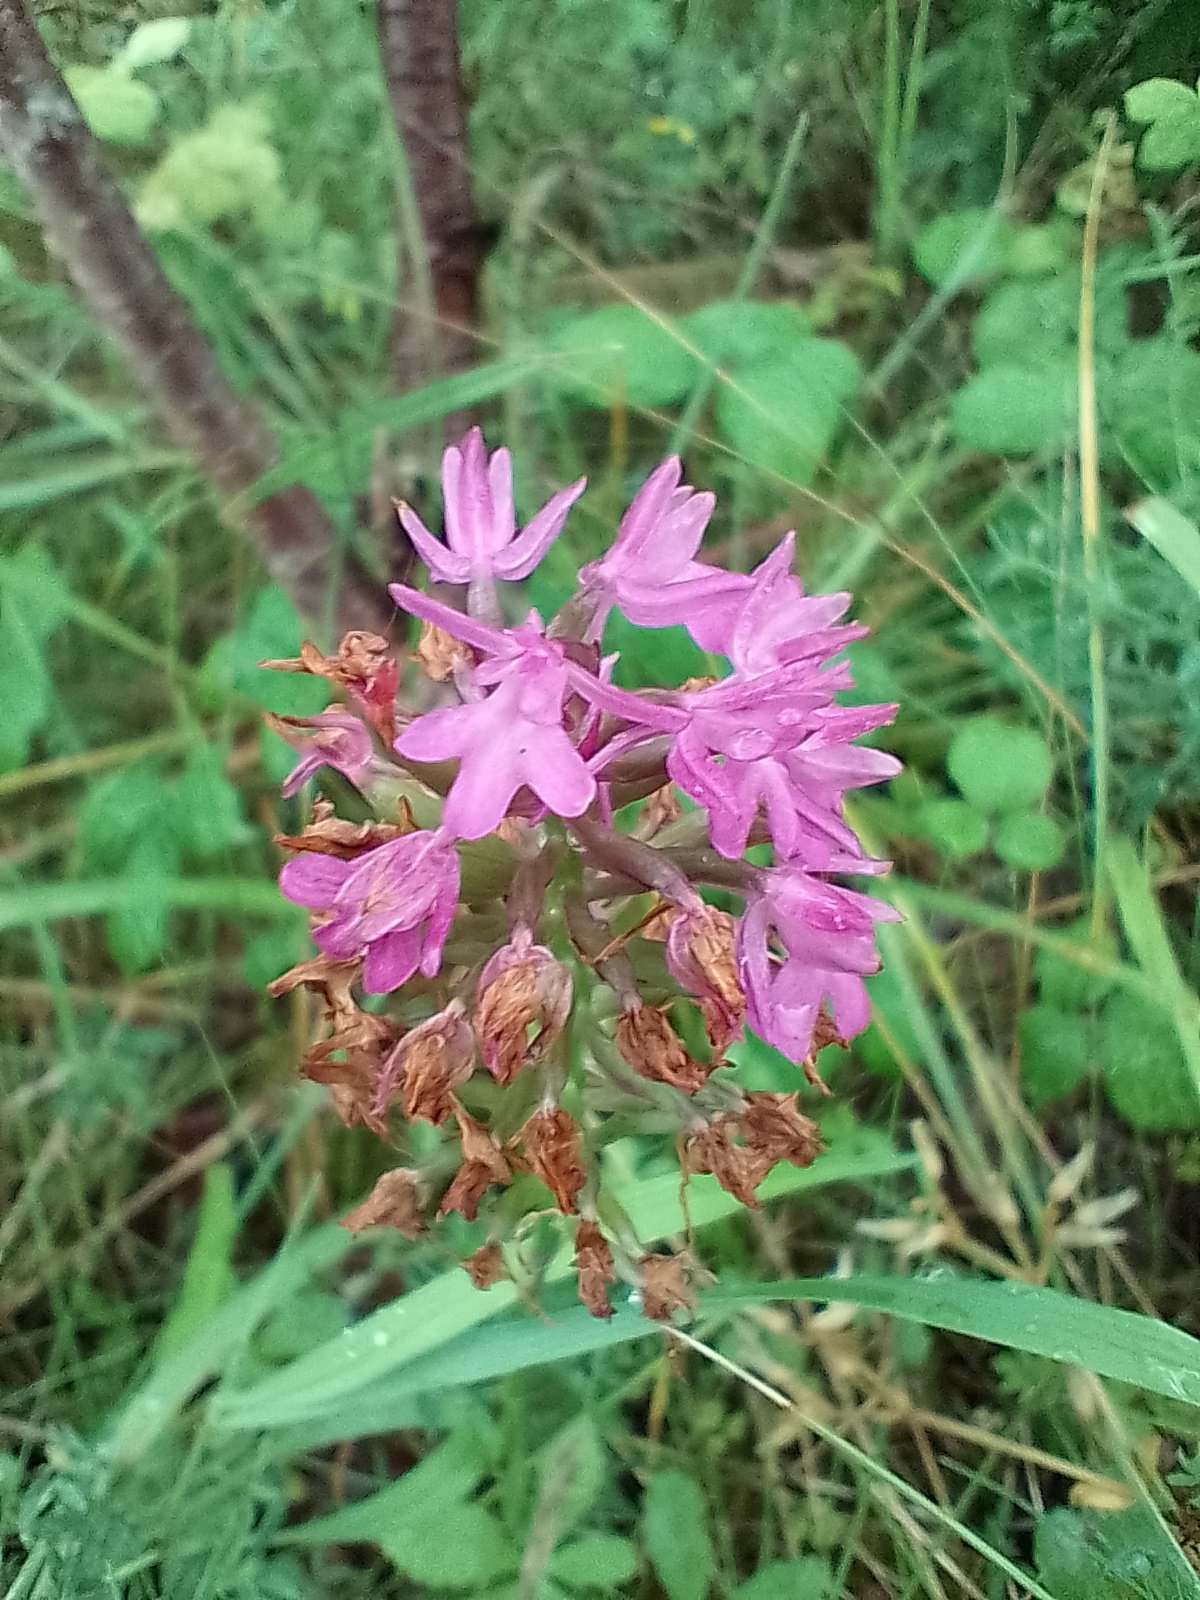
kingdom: Plantae
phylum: Tracheophyta
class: Liliopsida
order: Asparagales
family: Orchidaceae
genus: Anacamptis
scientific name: Anacamptis pyramidalis
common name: Pyramidal orchid
